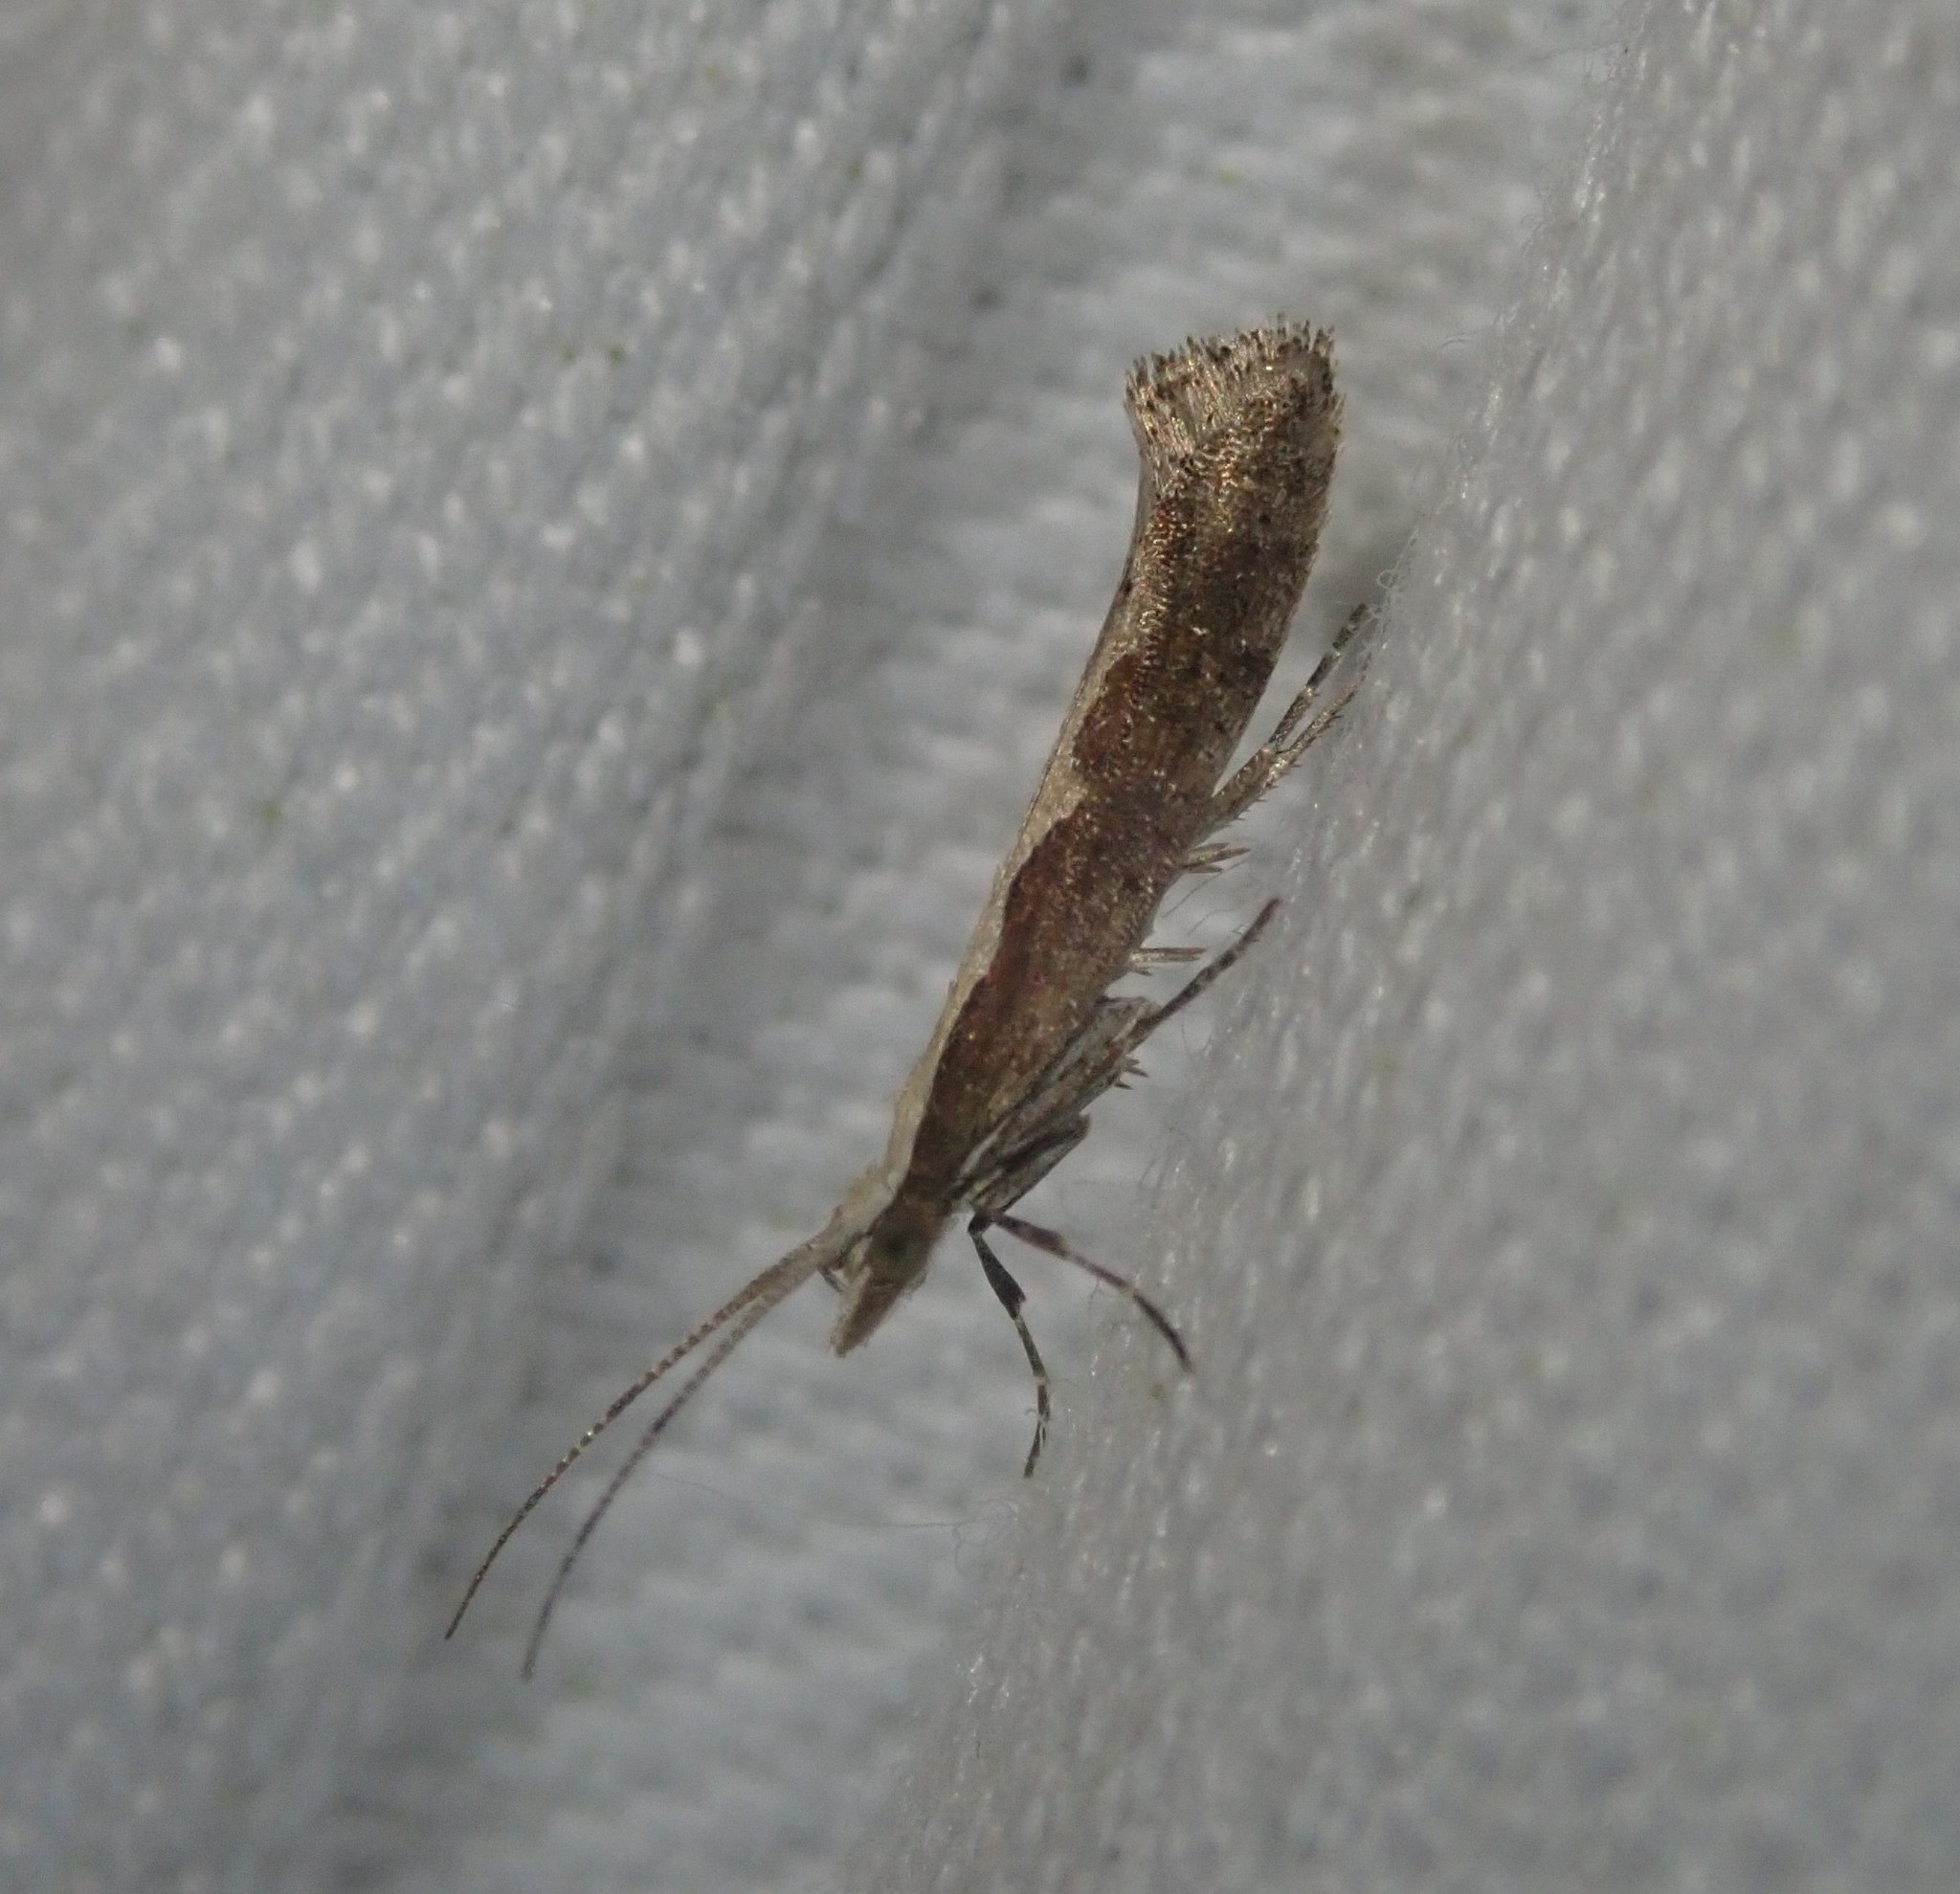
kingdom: Animalia
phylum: Arthropoda
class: Insecta
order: Lepidoptera
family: Plutellidae
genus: Plutella
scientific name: Plutella xylostella
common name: Diamond-back moth
